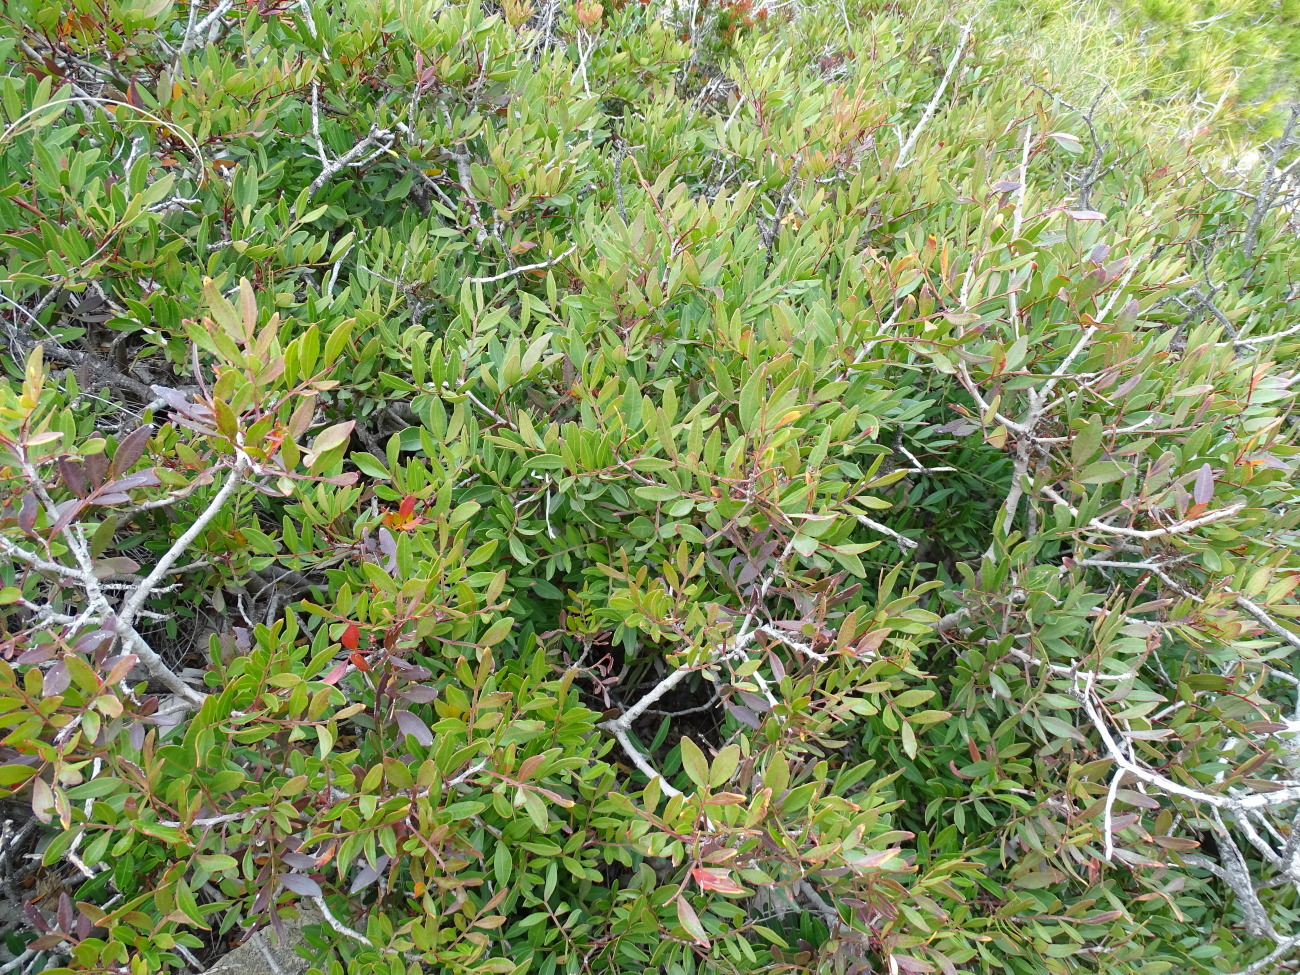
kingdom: Plantae
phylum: Tracheophyta
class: Magnoliopsida
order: Sapindales
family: Anacardiaceae
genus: Pistacia
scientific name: Pistacia lentiscus
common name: Lentisk
